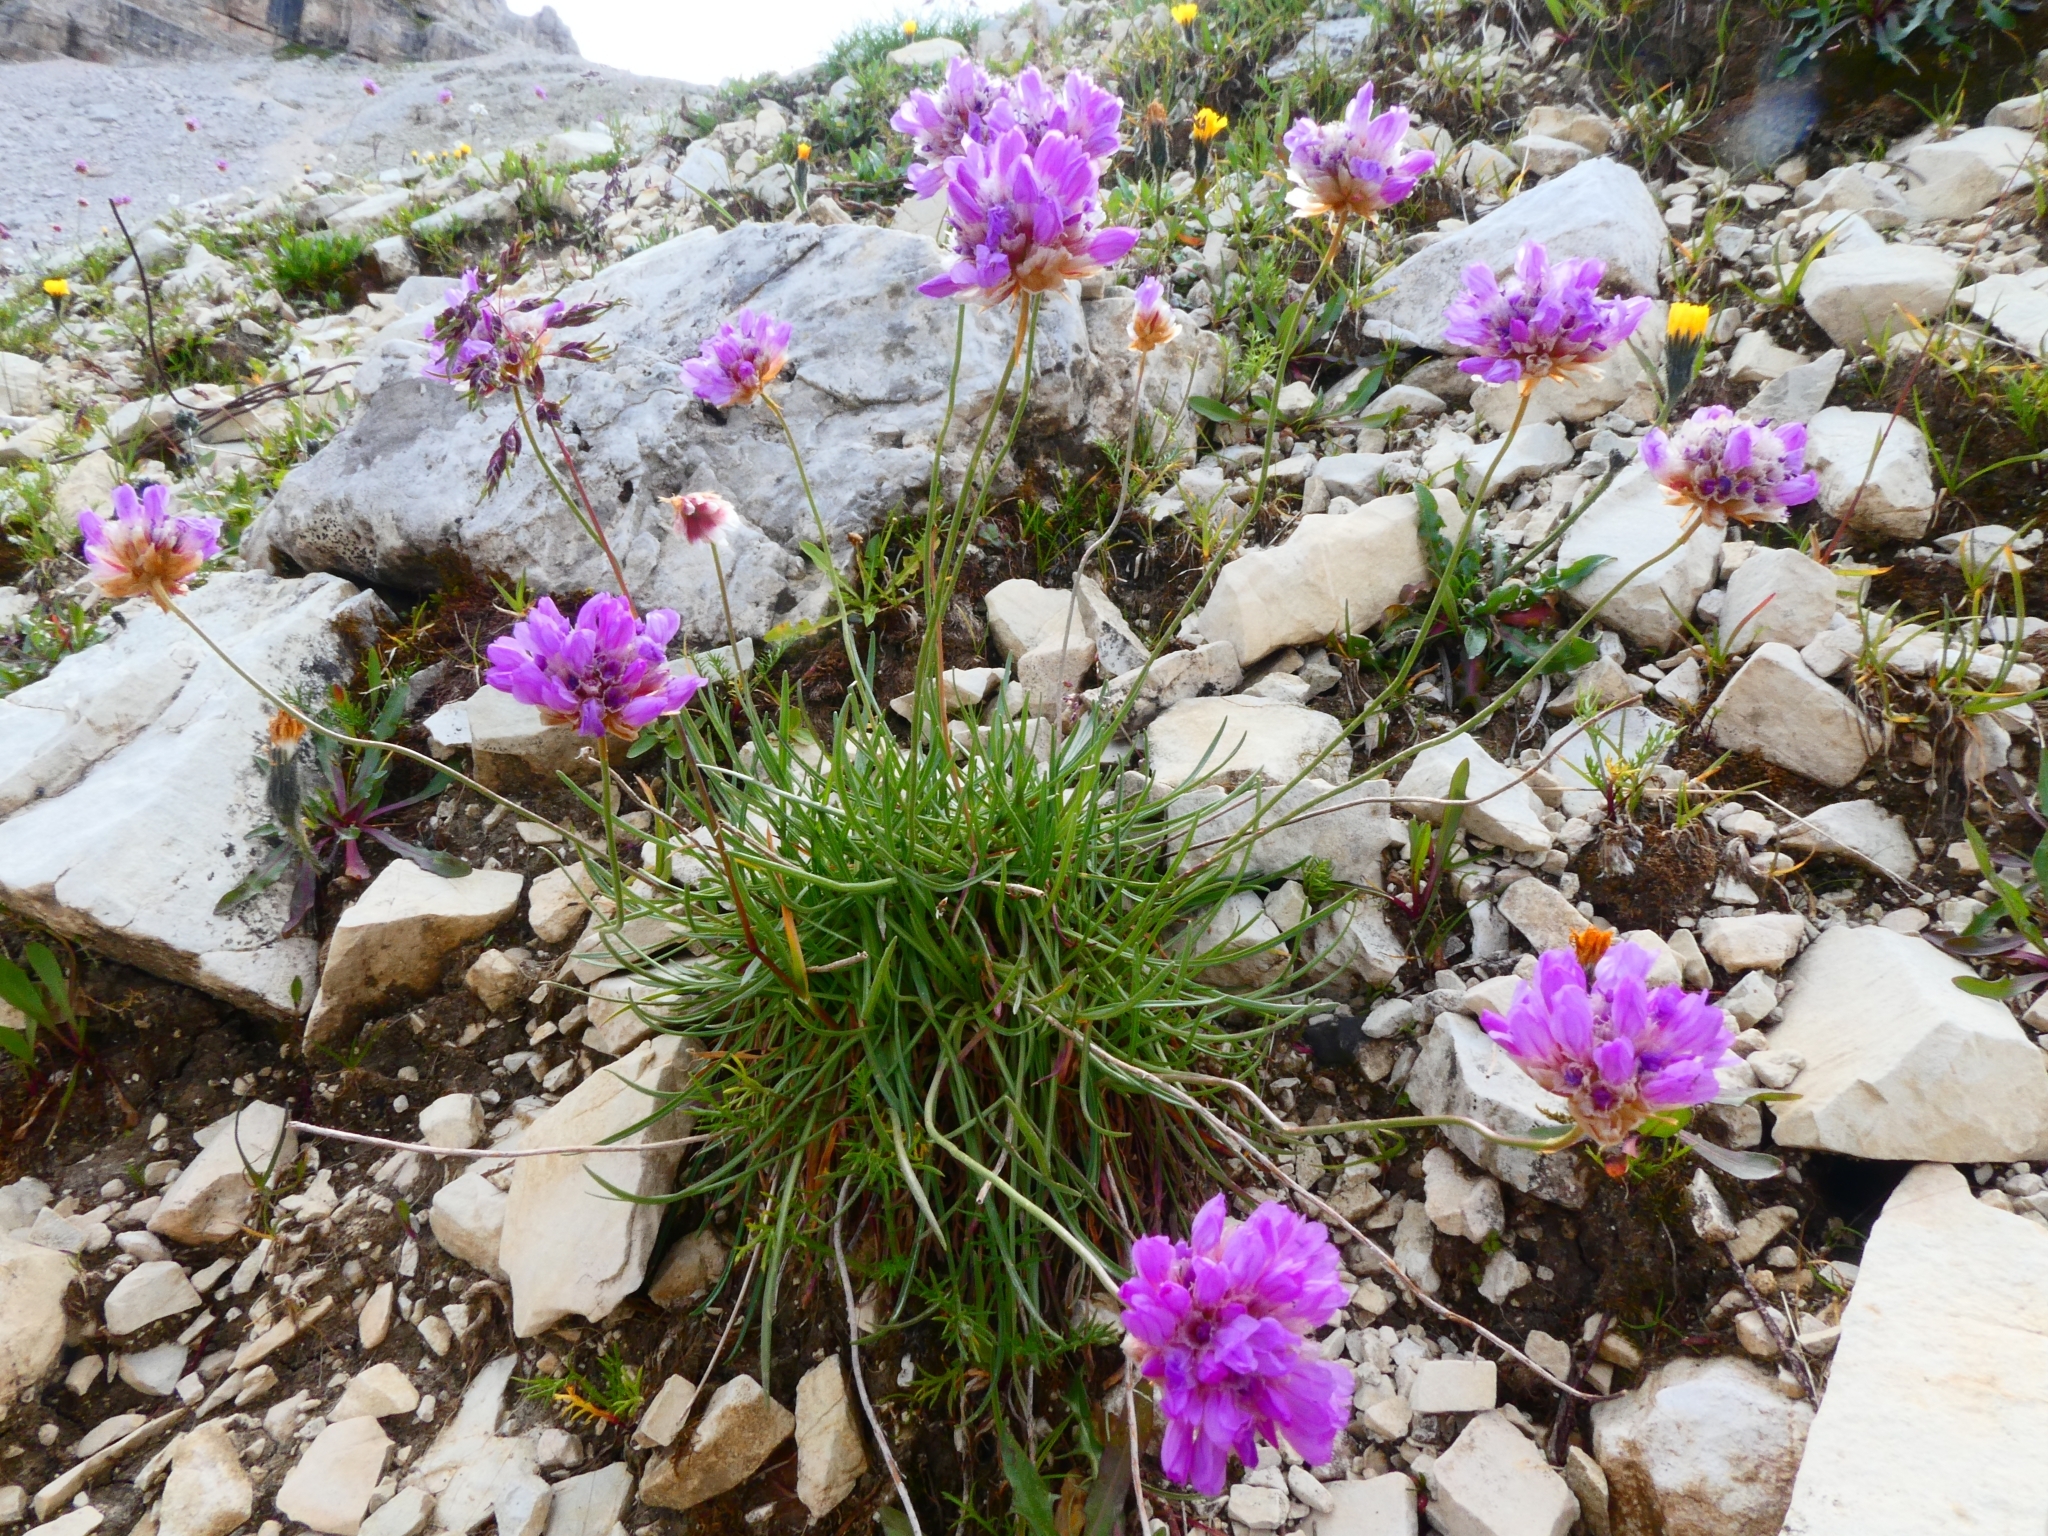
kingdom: Plantae
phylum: Tracheophyta
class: Magnoliopsida
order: Caryophyllales
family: Plumbaginaceae
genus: Armeria
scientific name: Armeria alpina
